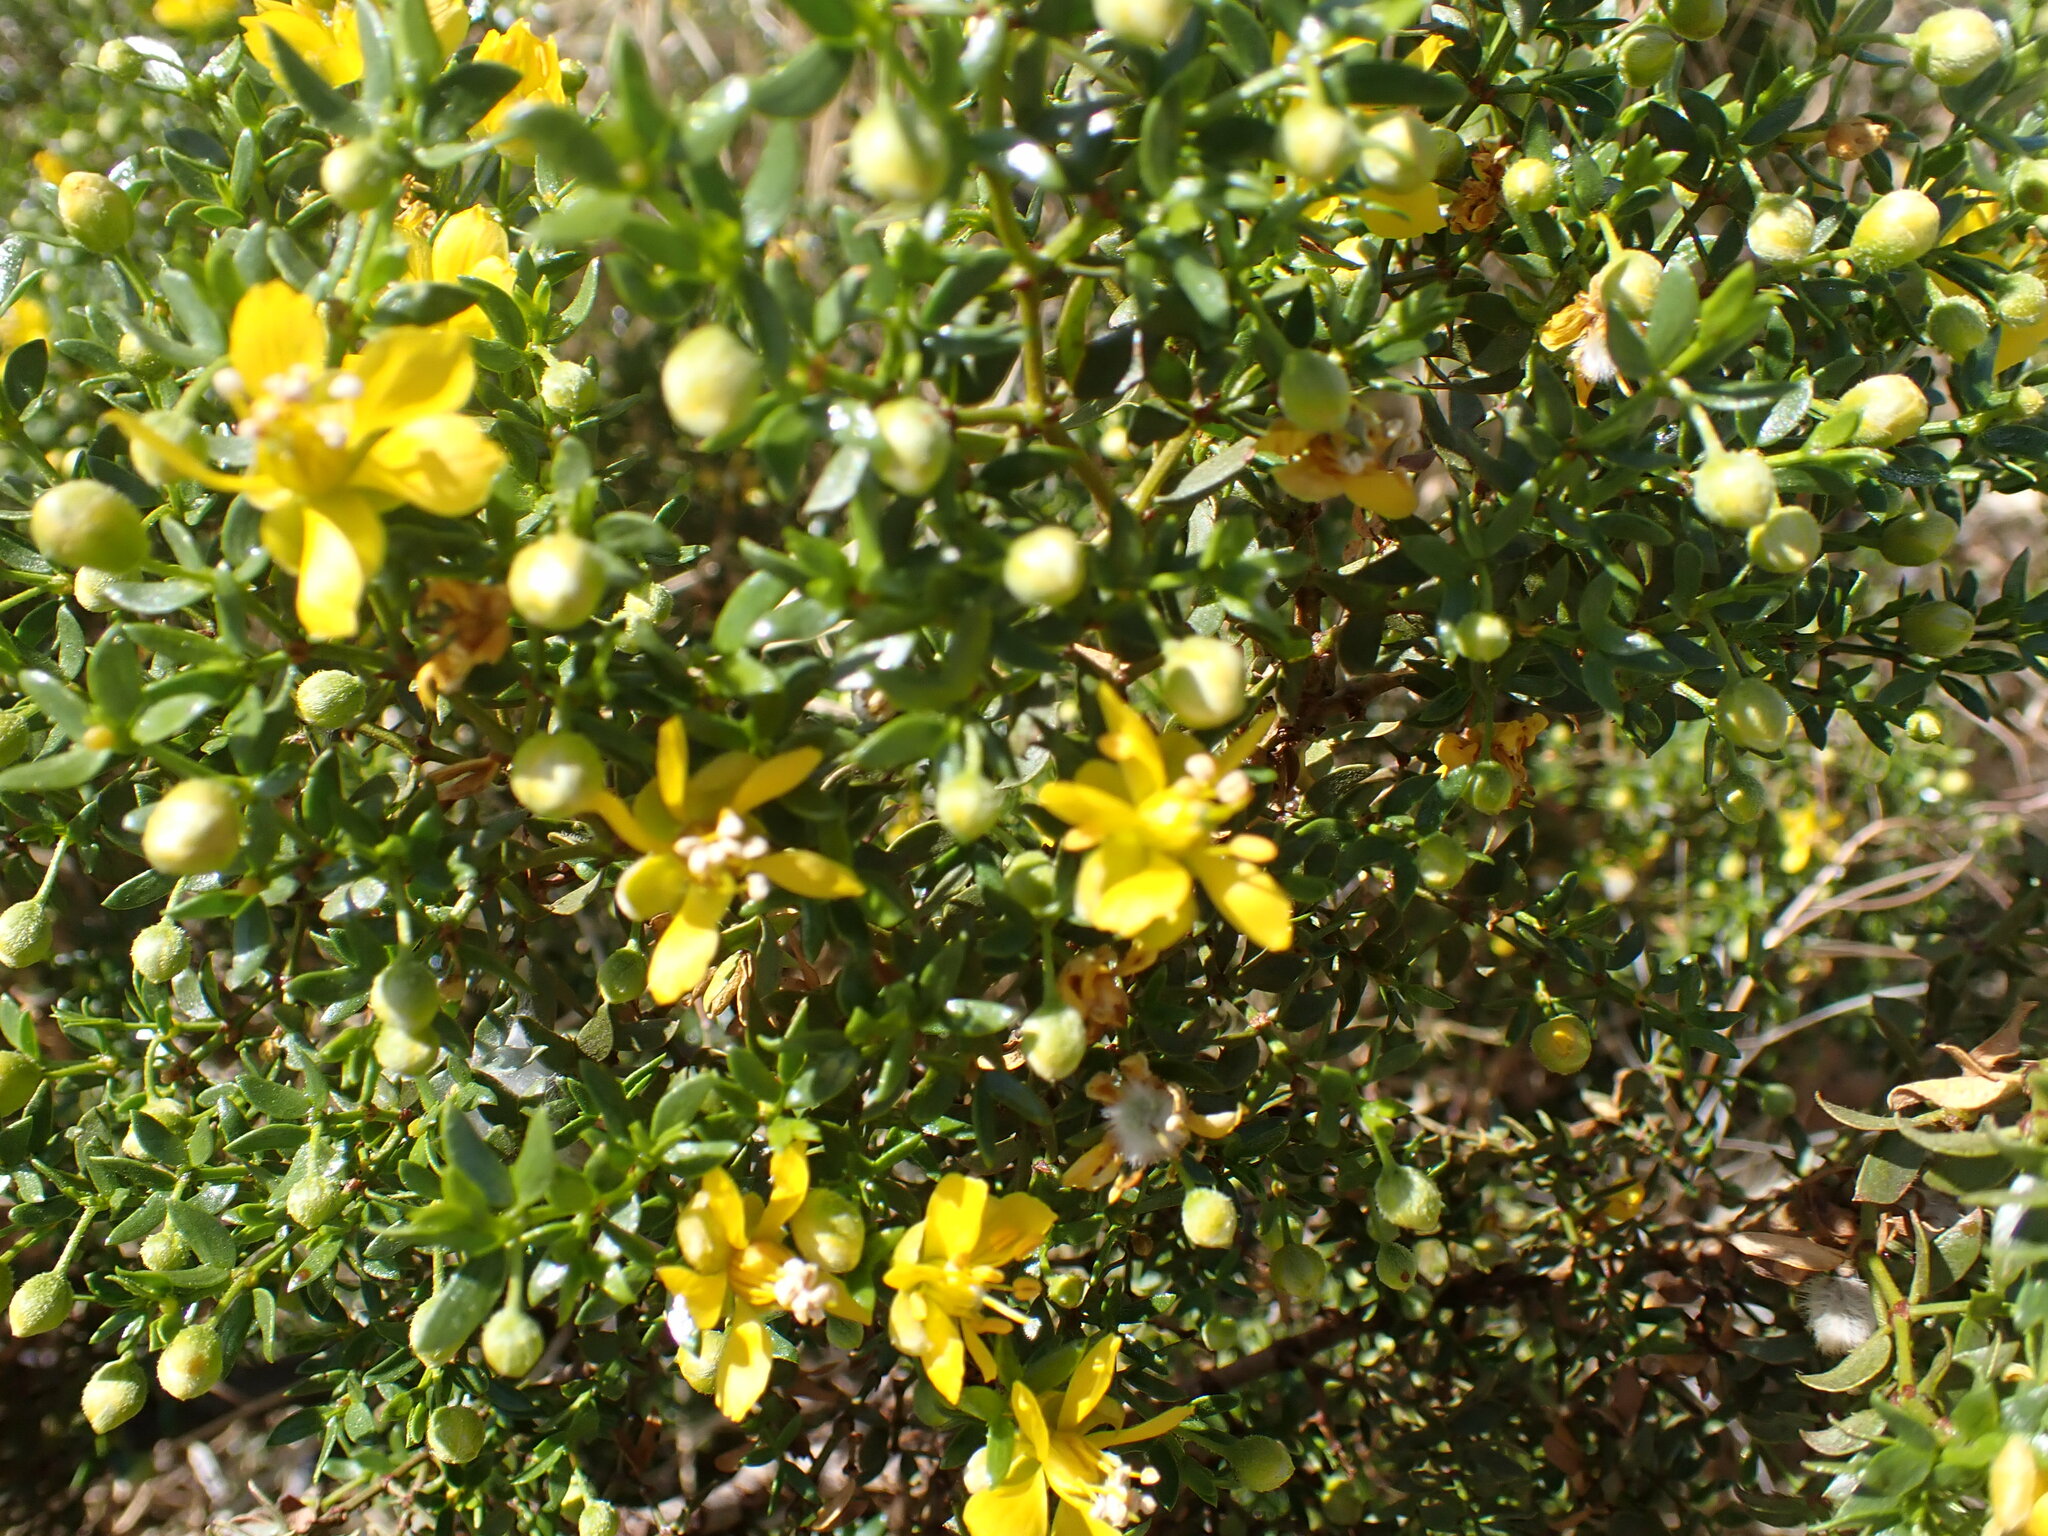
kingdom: Plantae
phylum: Tracheophyta
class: Magnoliopsida
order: Zygophyllales
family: Zygophyllaceae
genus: Larrea
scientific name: Larrea tridentata
